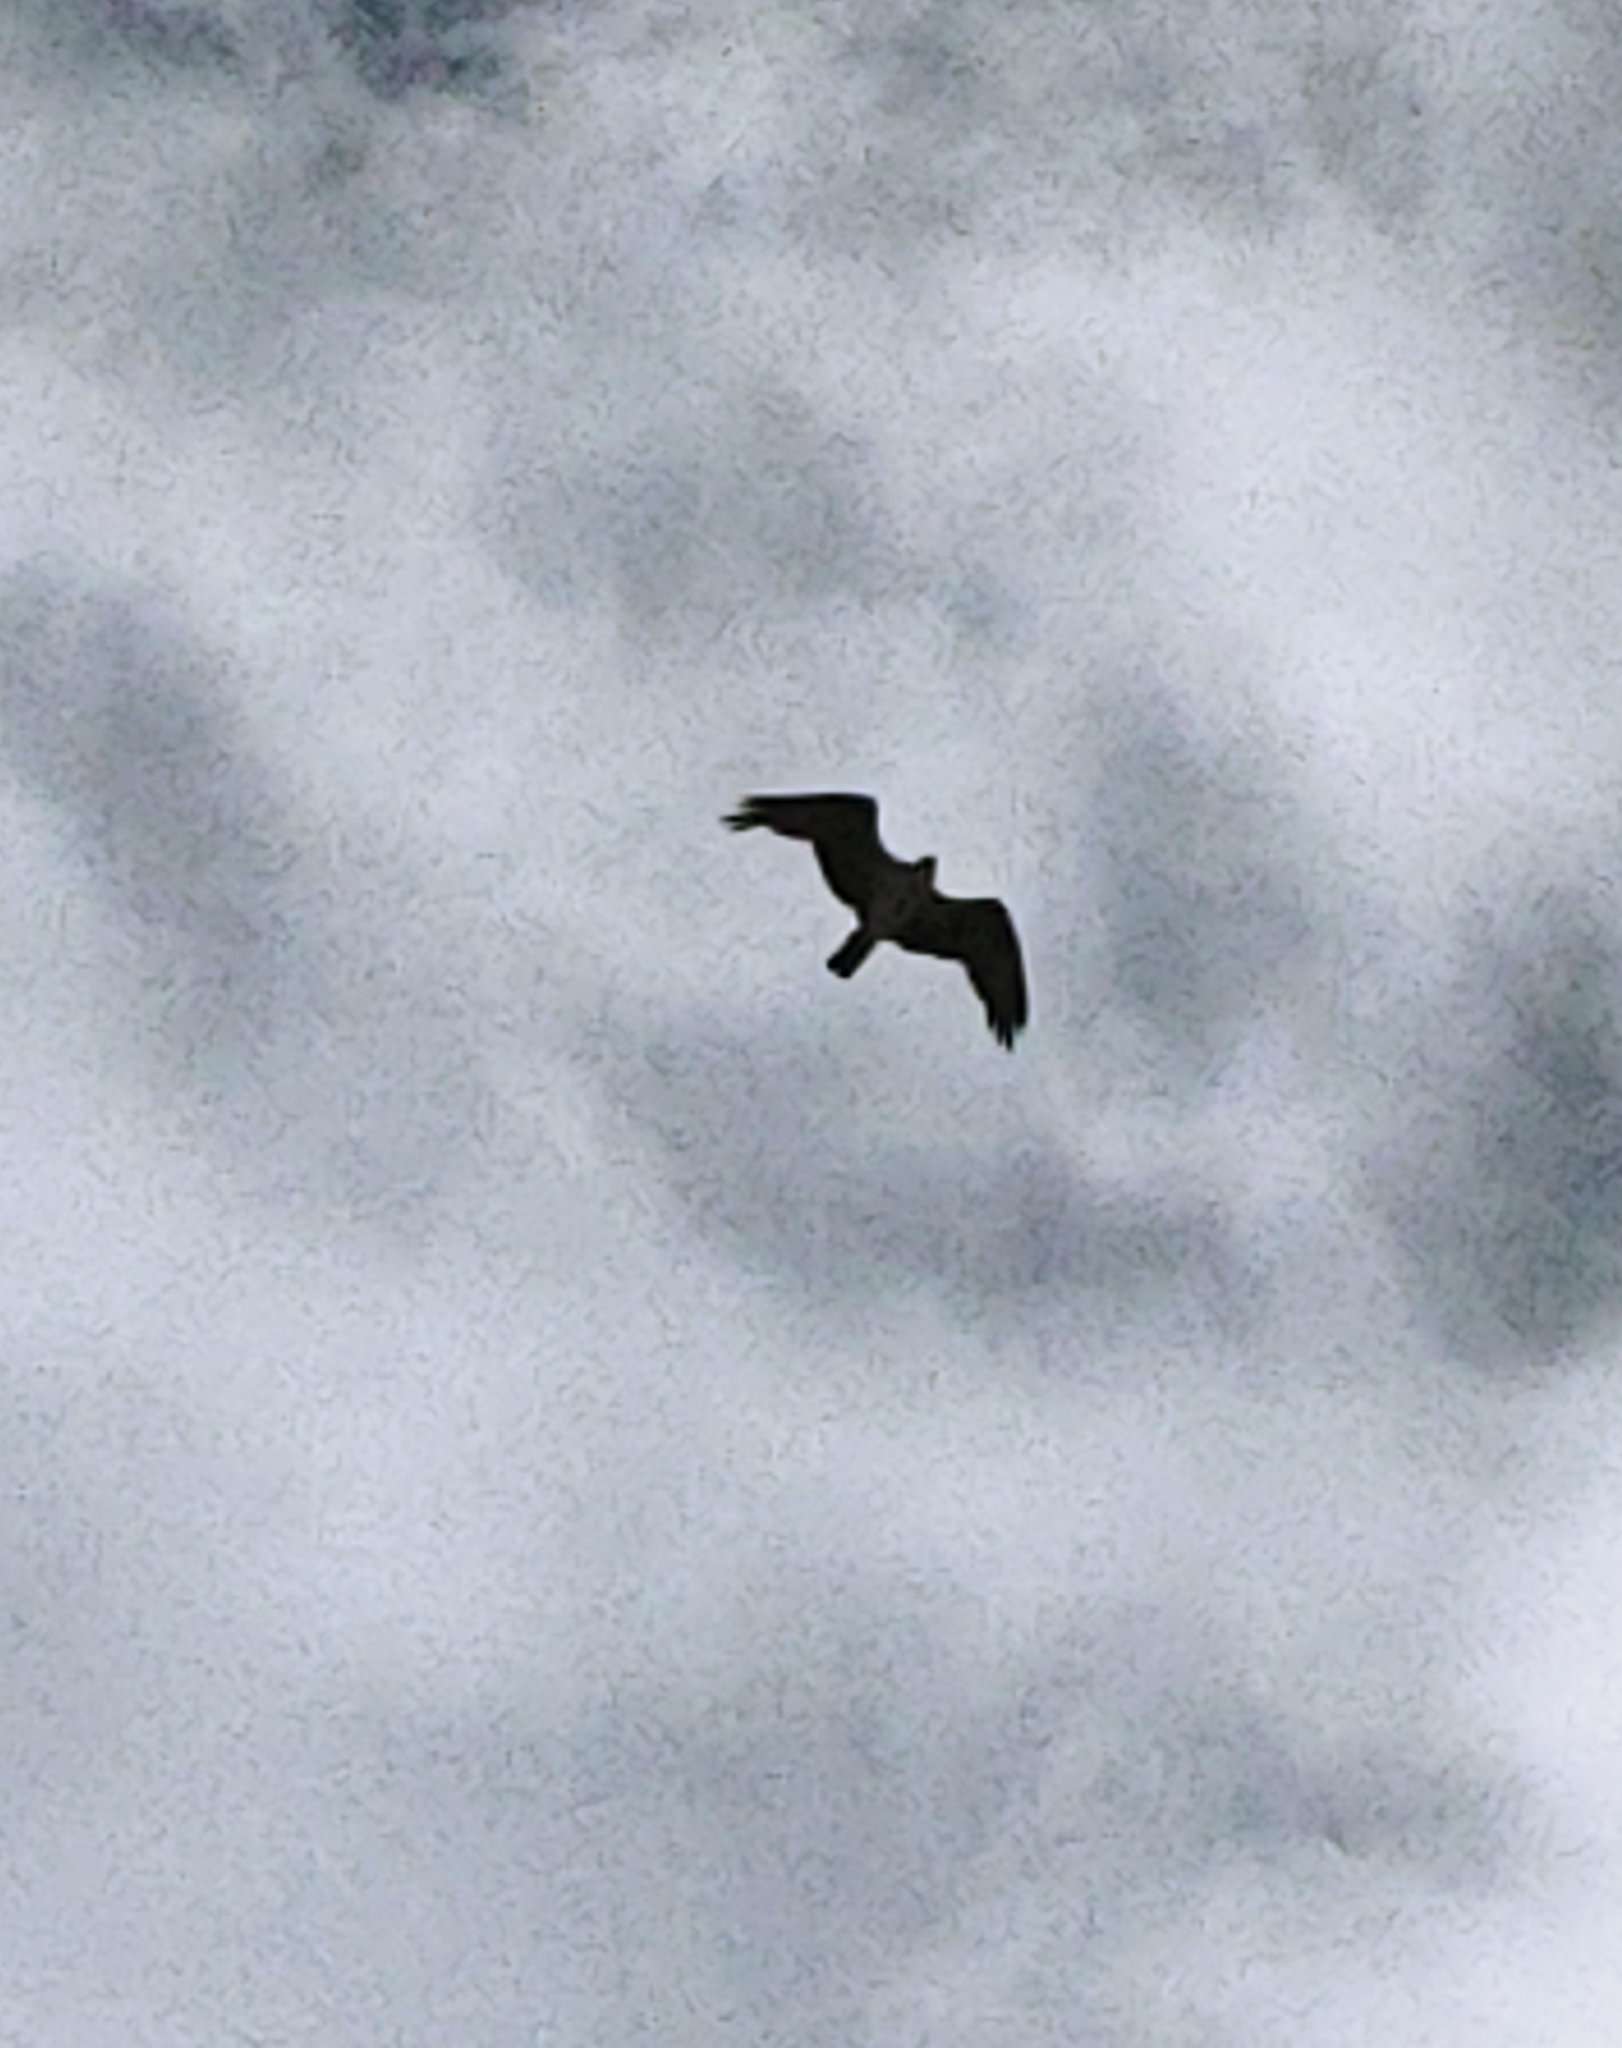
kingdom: Animalia
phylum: Chordata
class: Aves
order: Accipitriformes
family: Pandionidae
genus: Pandion
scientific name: Pandion haliaetus
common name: Osprey
